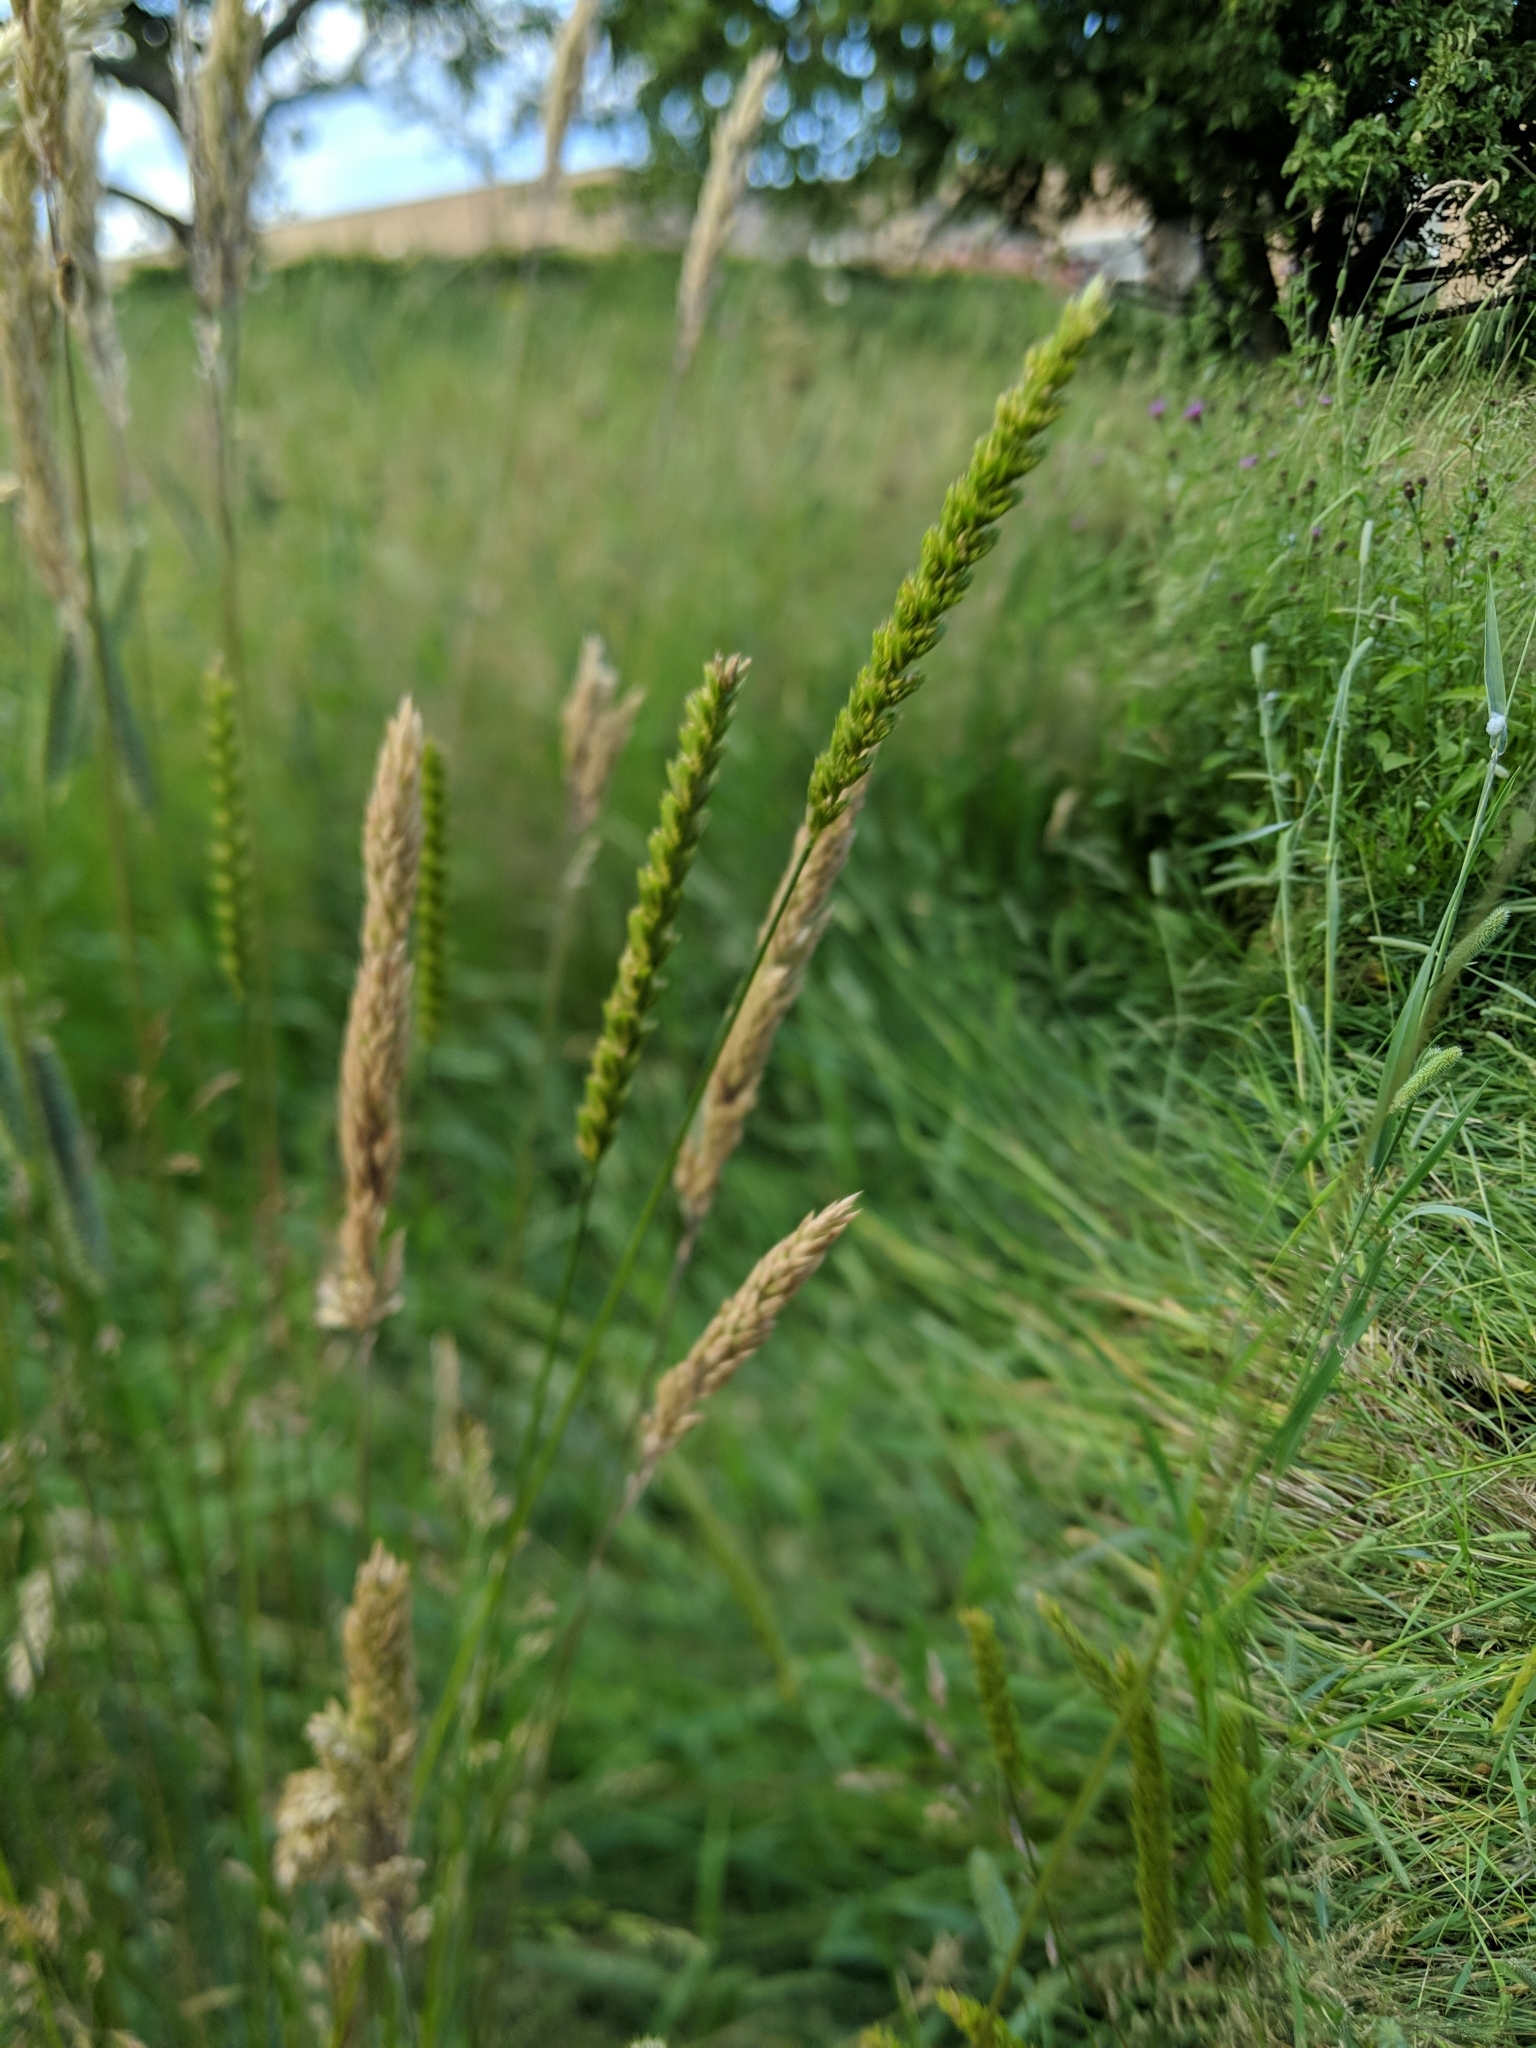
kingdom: Plantae
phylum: Tracheophyta
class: Liliopsida
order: Poales
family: Poaceae
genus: Cynosurus
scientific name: Cynosurus cristatus
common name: Crested dog's-tail
